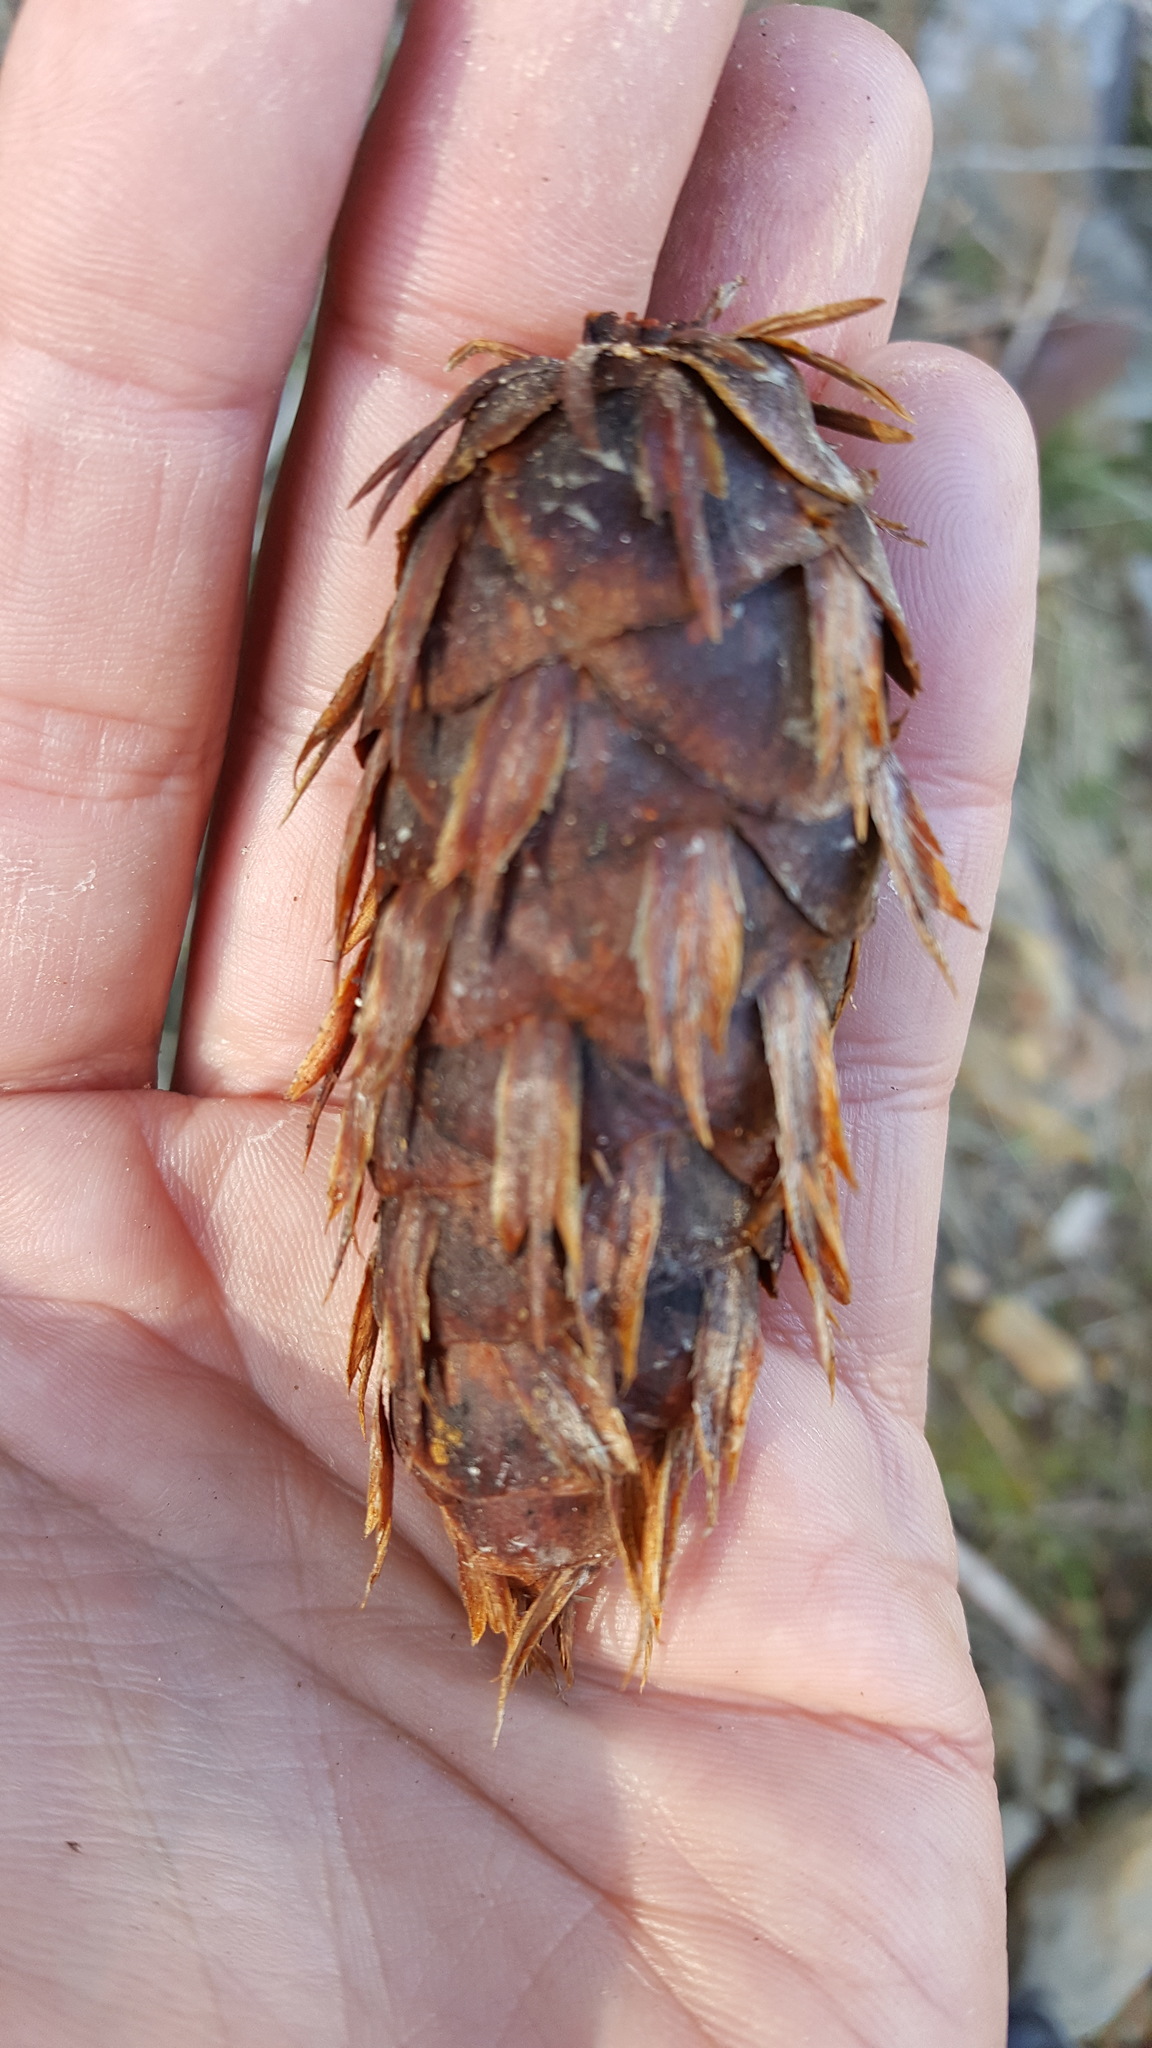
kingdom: Plantae
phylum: Tracheophyta
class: Pinopsida
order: Pinales
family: Pinaceae
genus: Pseudotsuga
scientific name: Pseudotsuga menziesii
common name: Douglas fir
